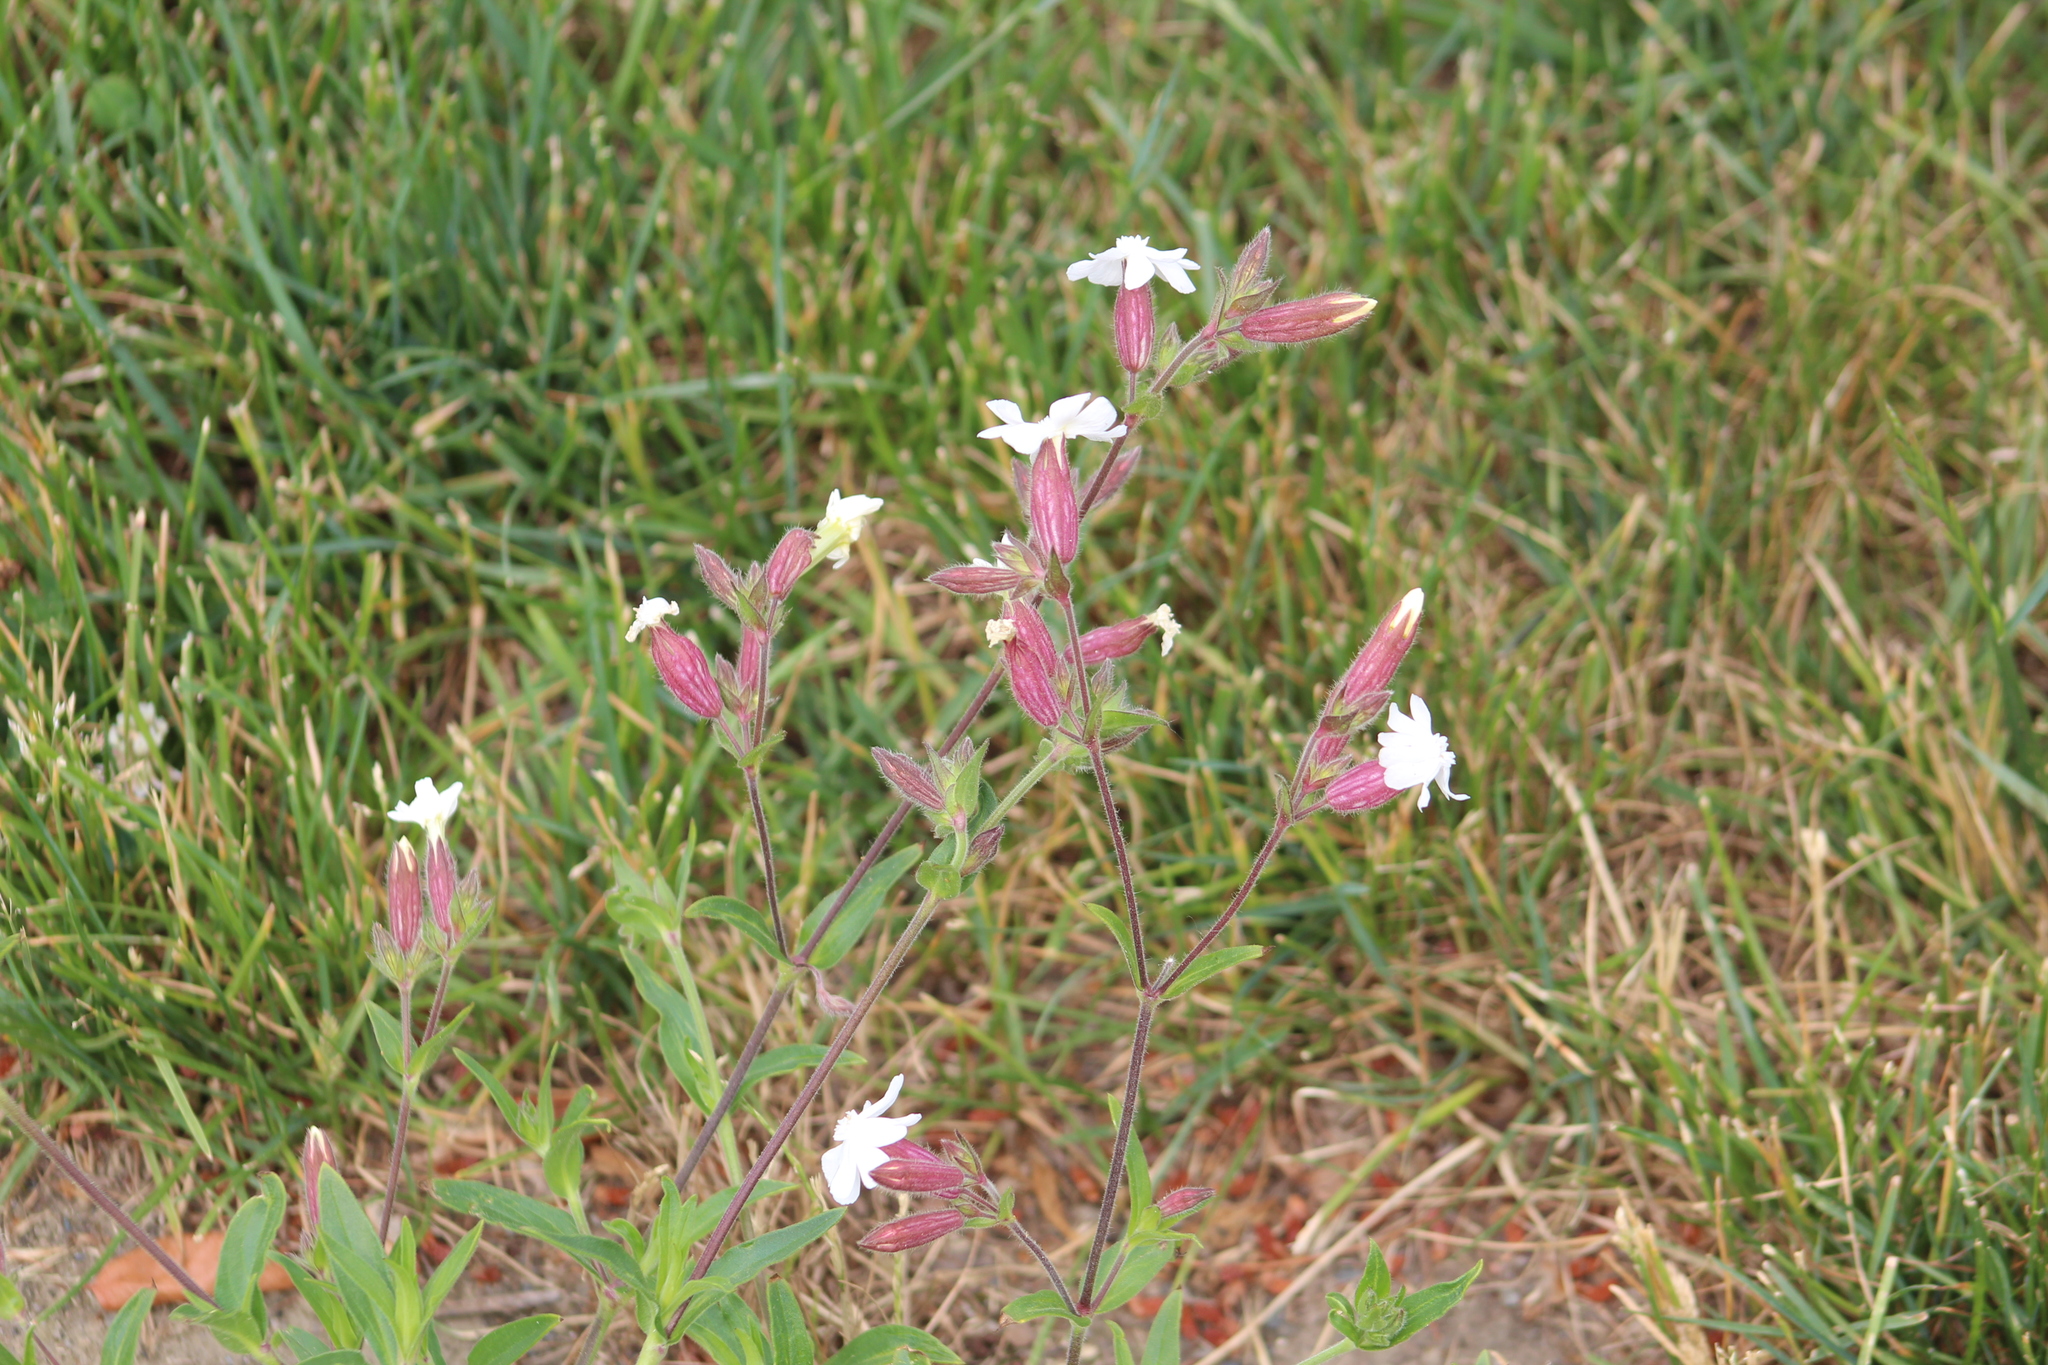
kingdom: Plantae
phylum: Tracheophyta
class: Magnoliopsida
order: Caryophyllales
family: Caryophyllaceae
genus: Silene
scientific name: Silene latifolia
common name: White campion
